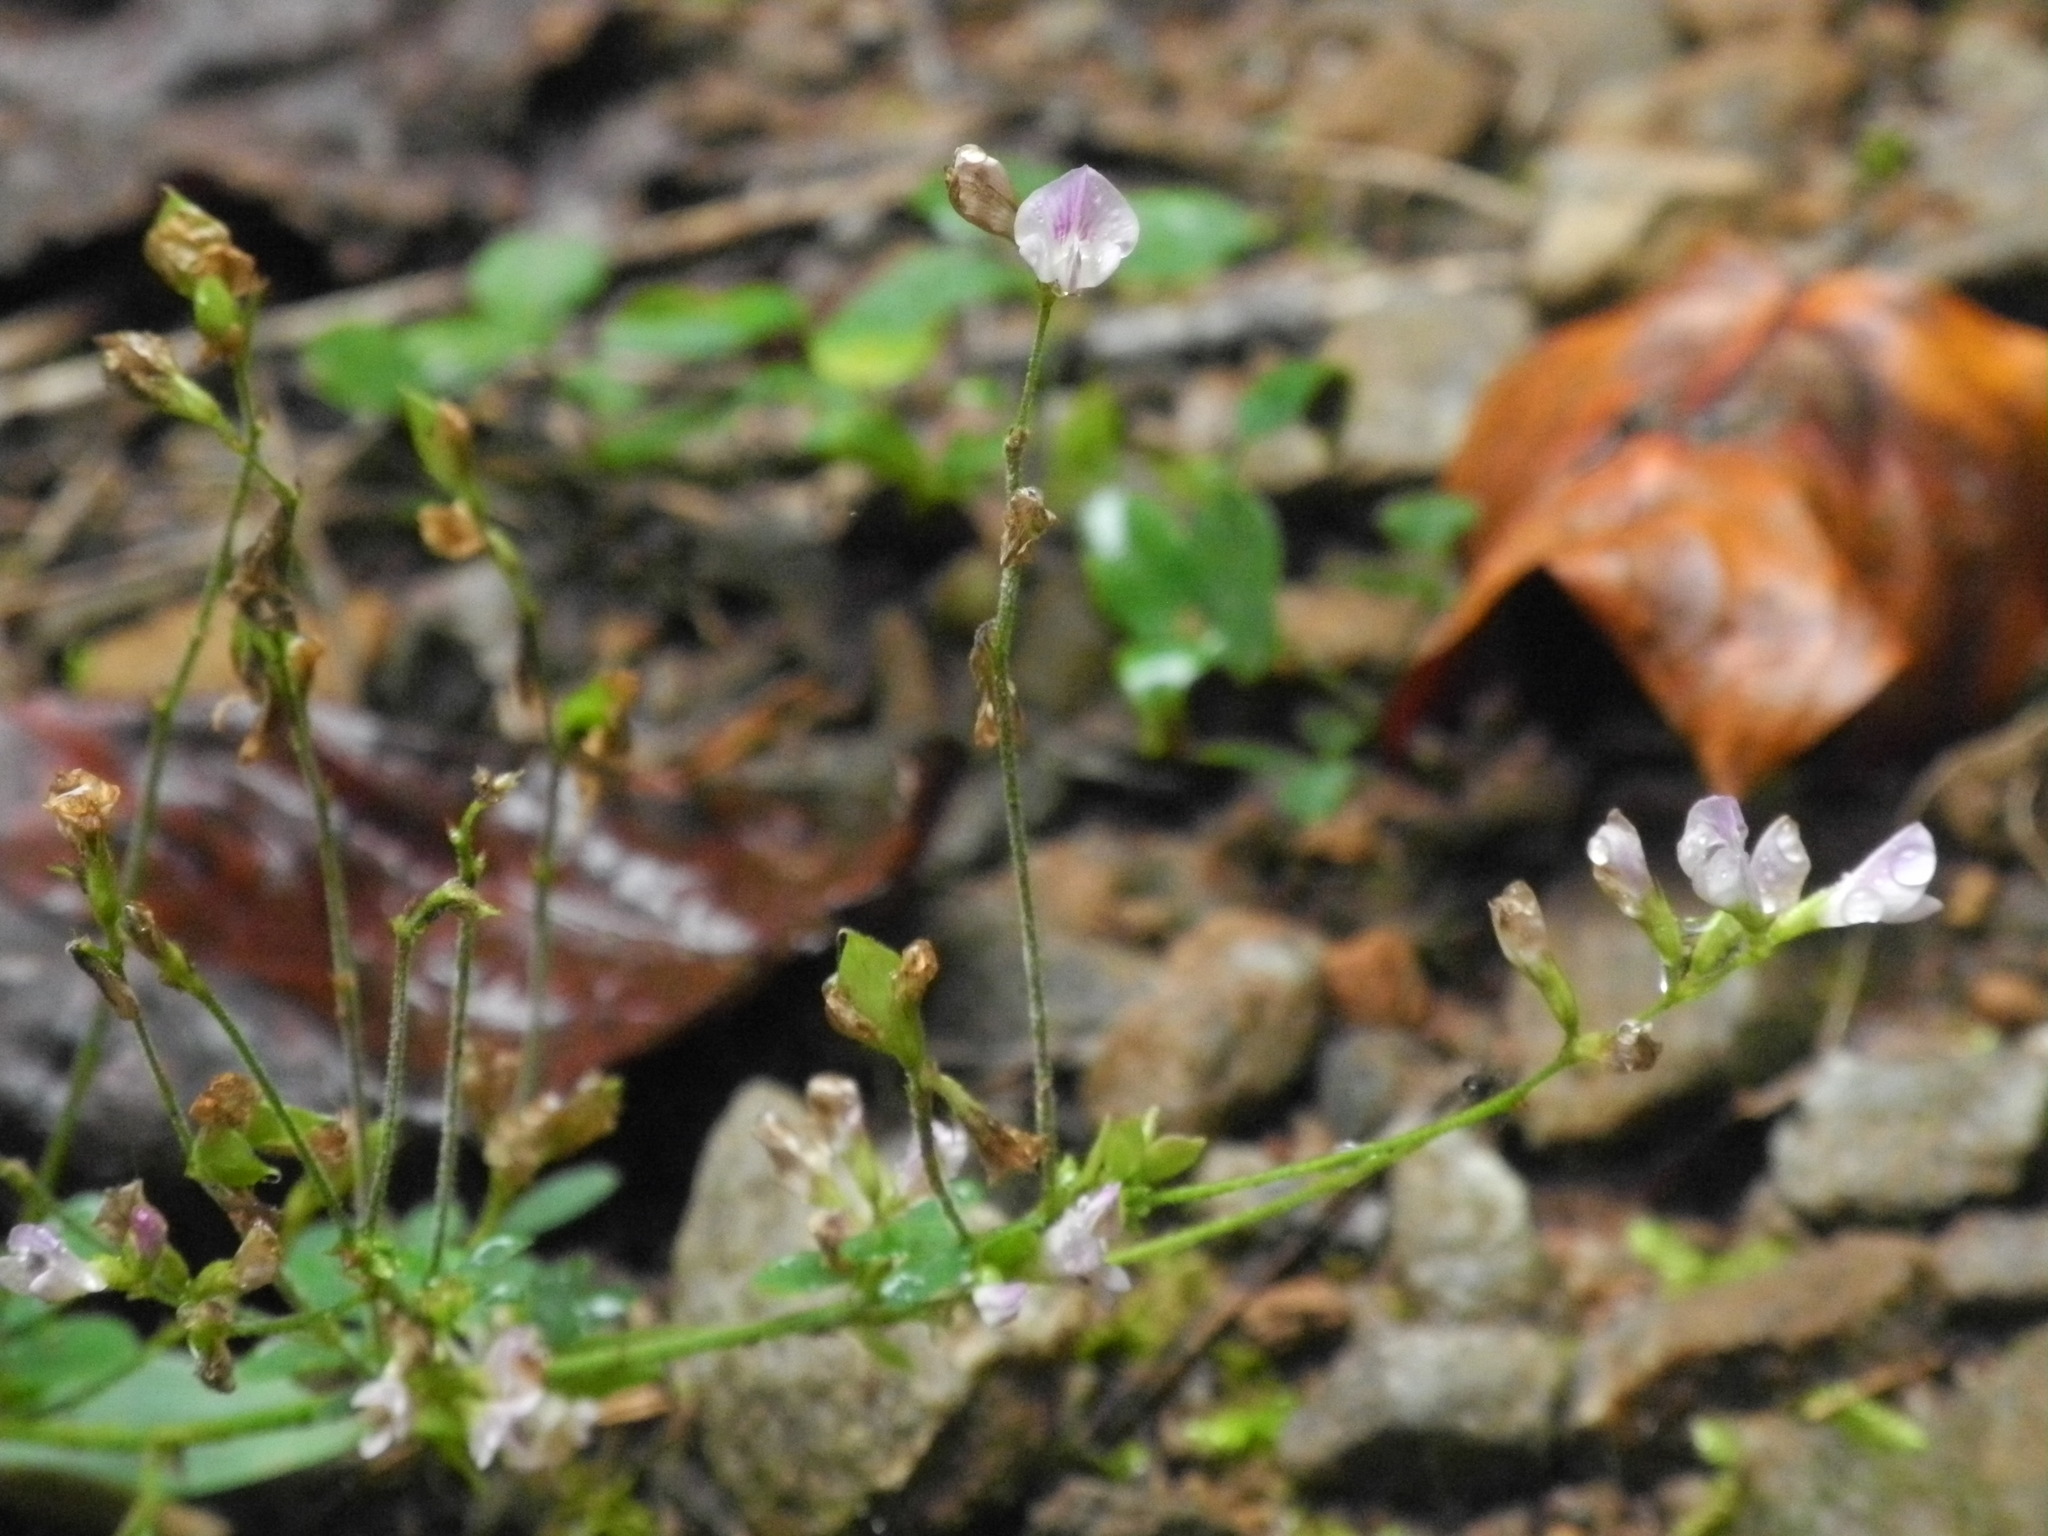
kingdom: Plantae
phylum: Tracheophyta
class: Magnoliopsida
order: Fabales
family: Fabaceae
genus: Lespedeza
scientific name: Lespedeza repens
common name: Creeping bush-clover
